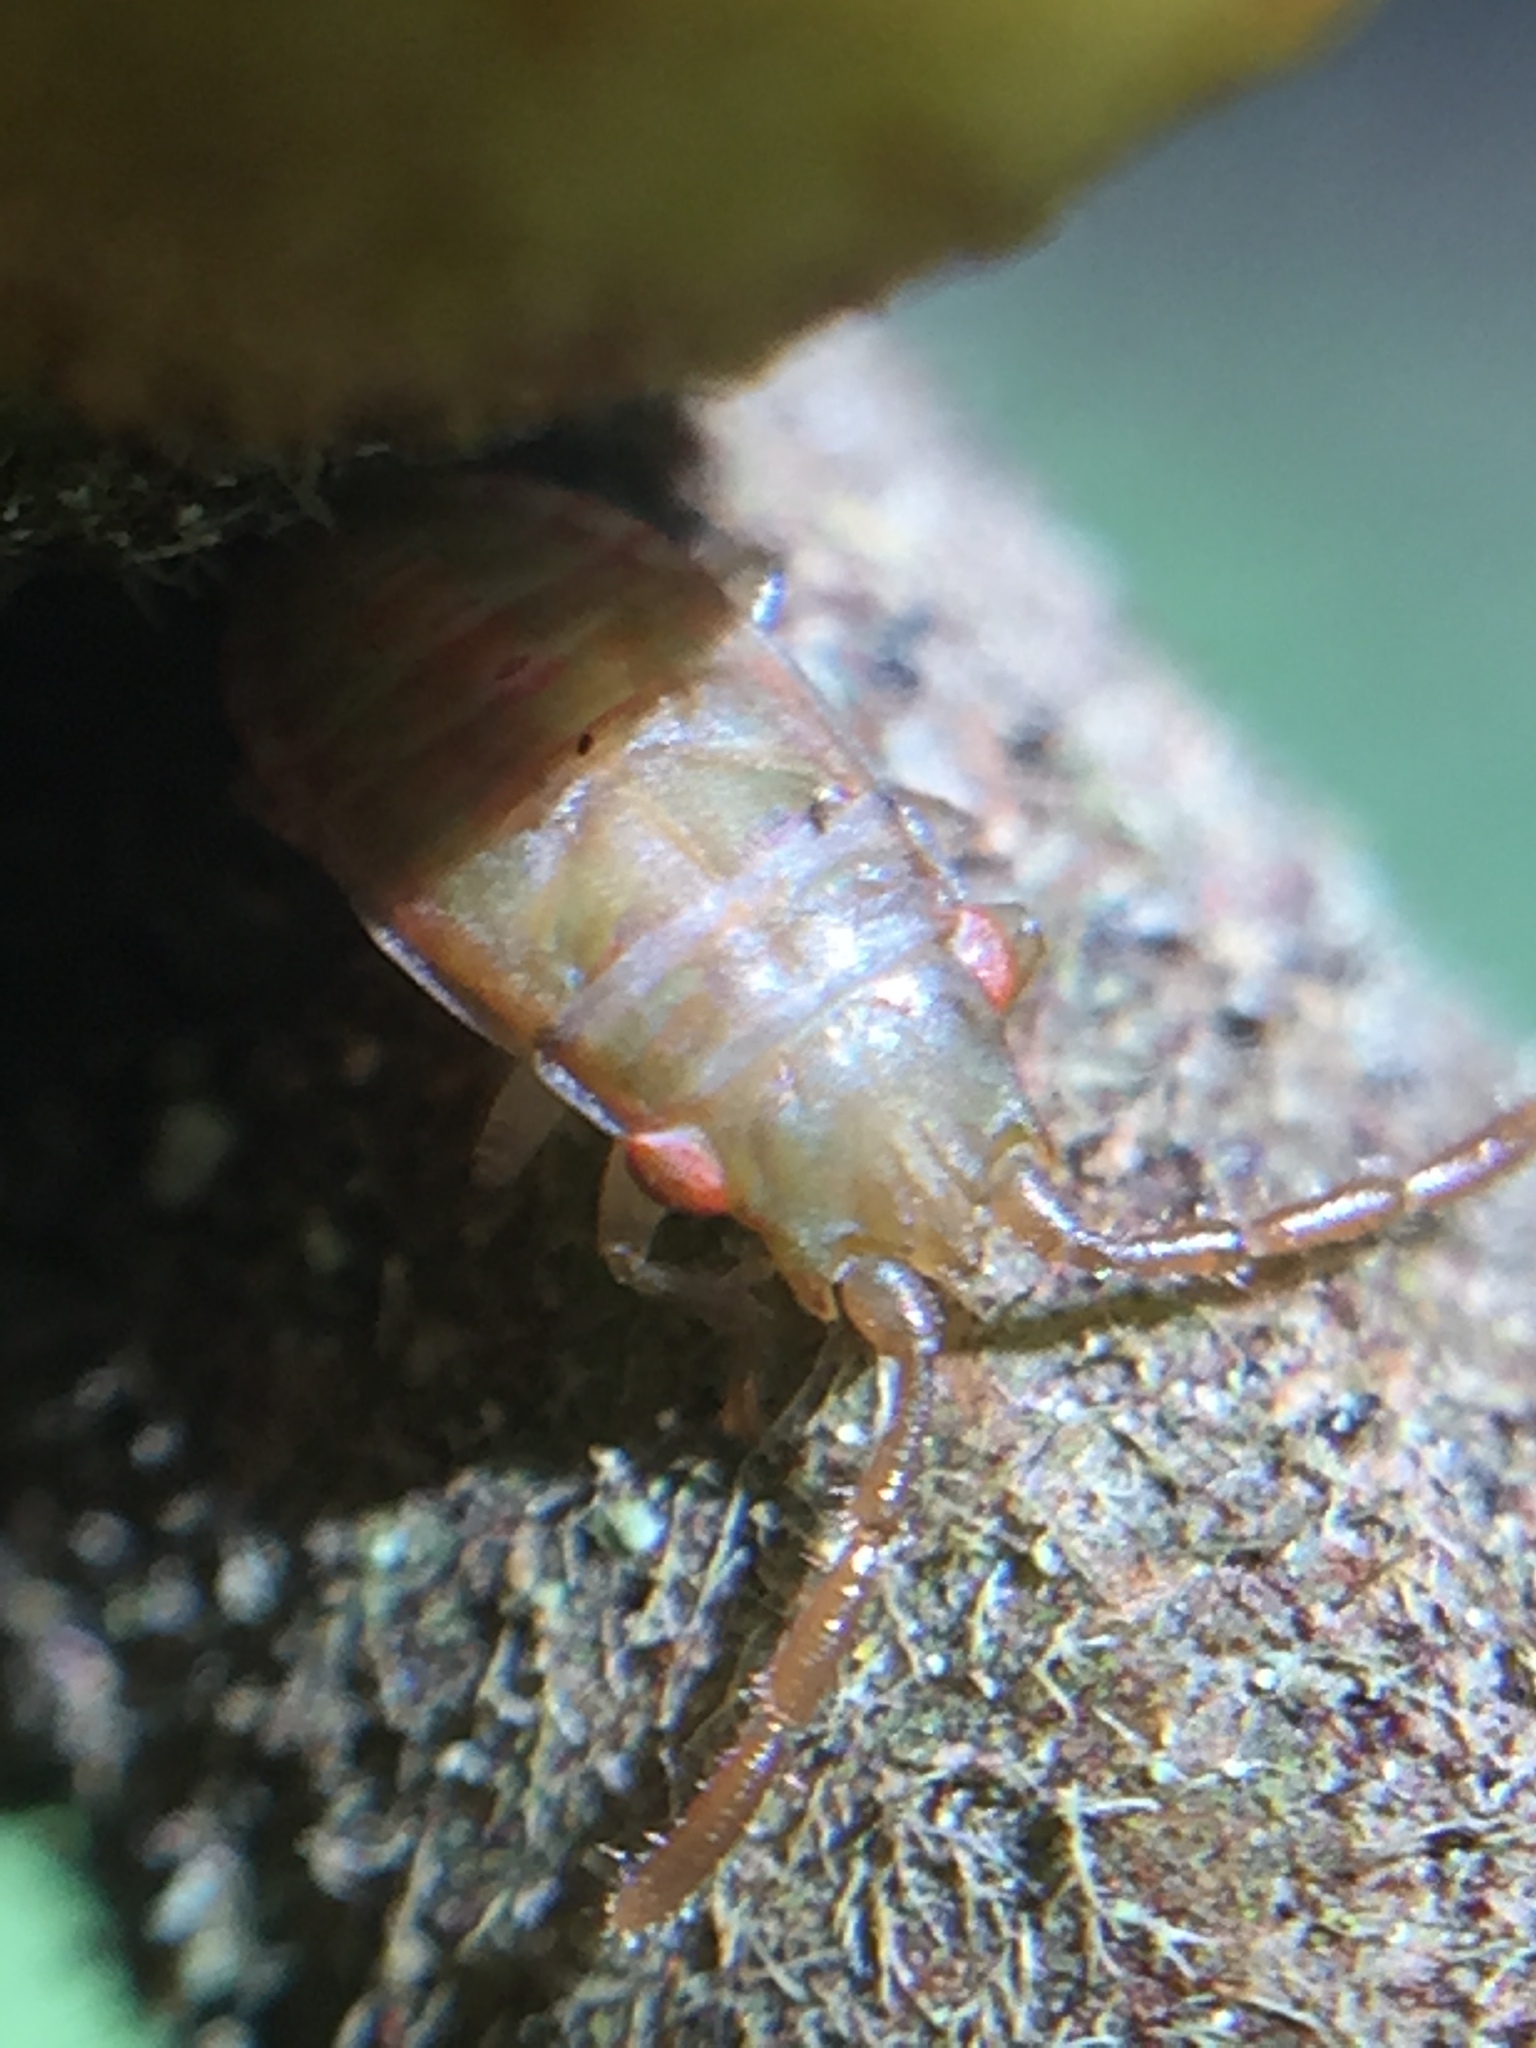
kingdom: Animalia
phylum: Arthropoda
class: Insecta
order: Hemiptera
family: Meschiidae
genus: Meschia
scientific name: Meschia barrowensis
